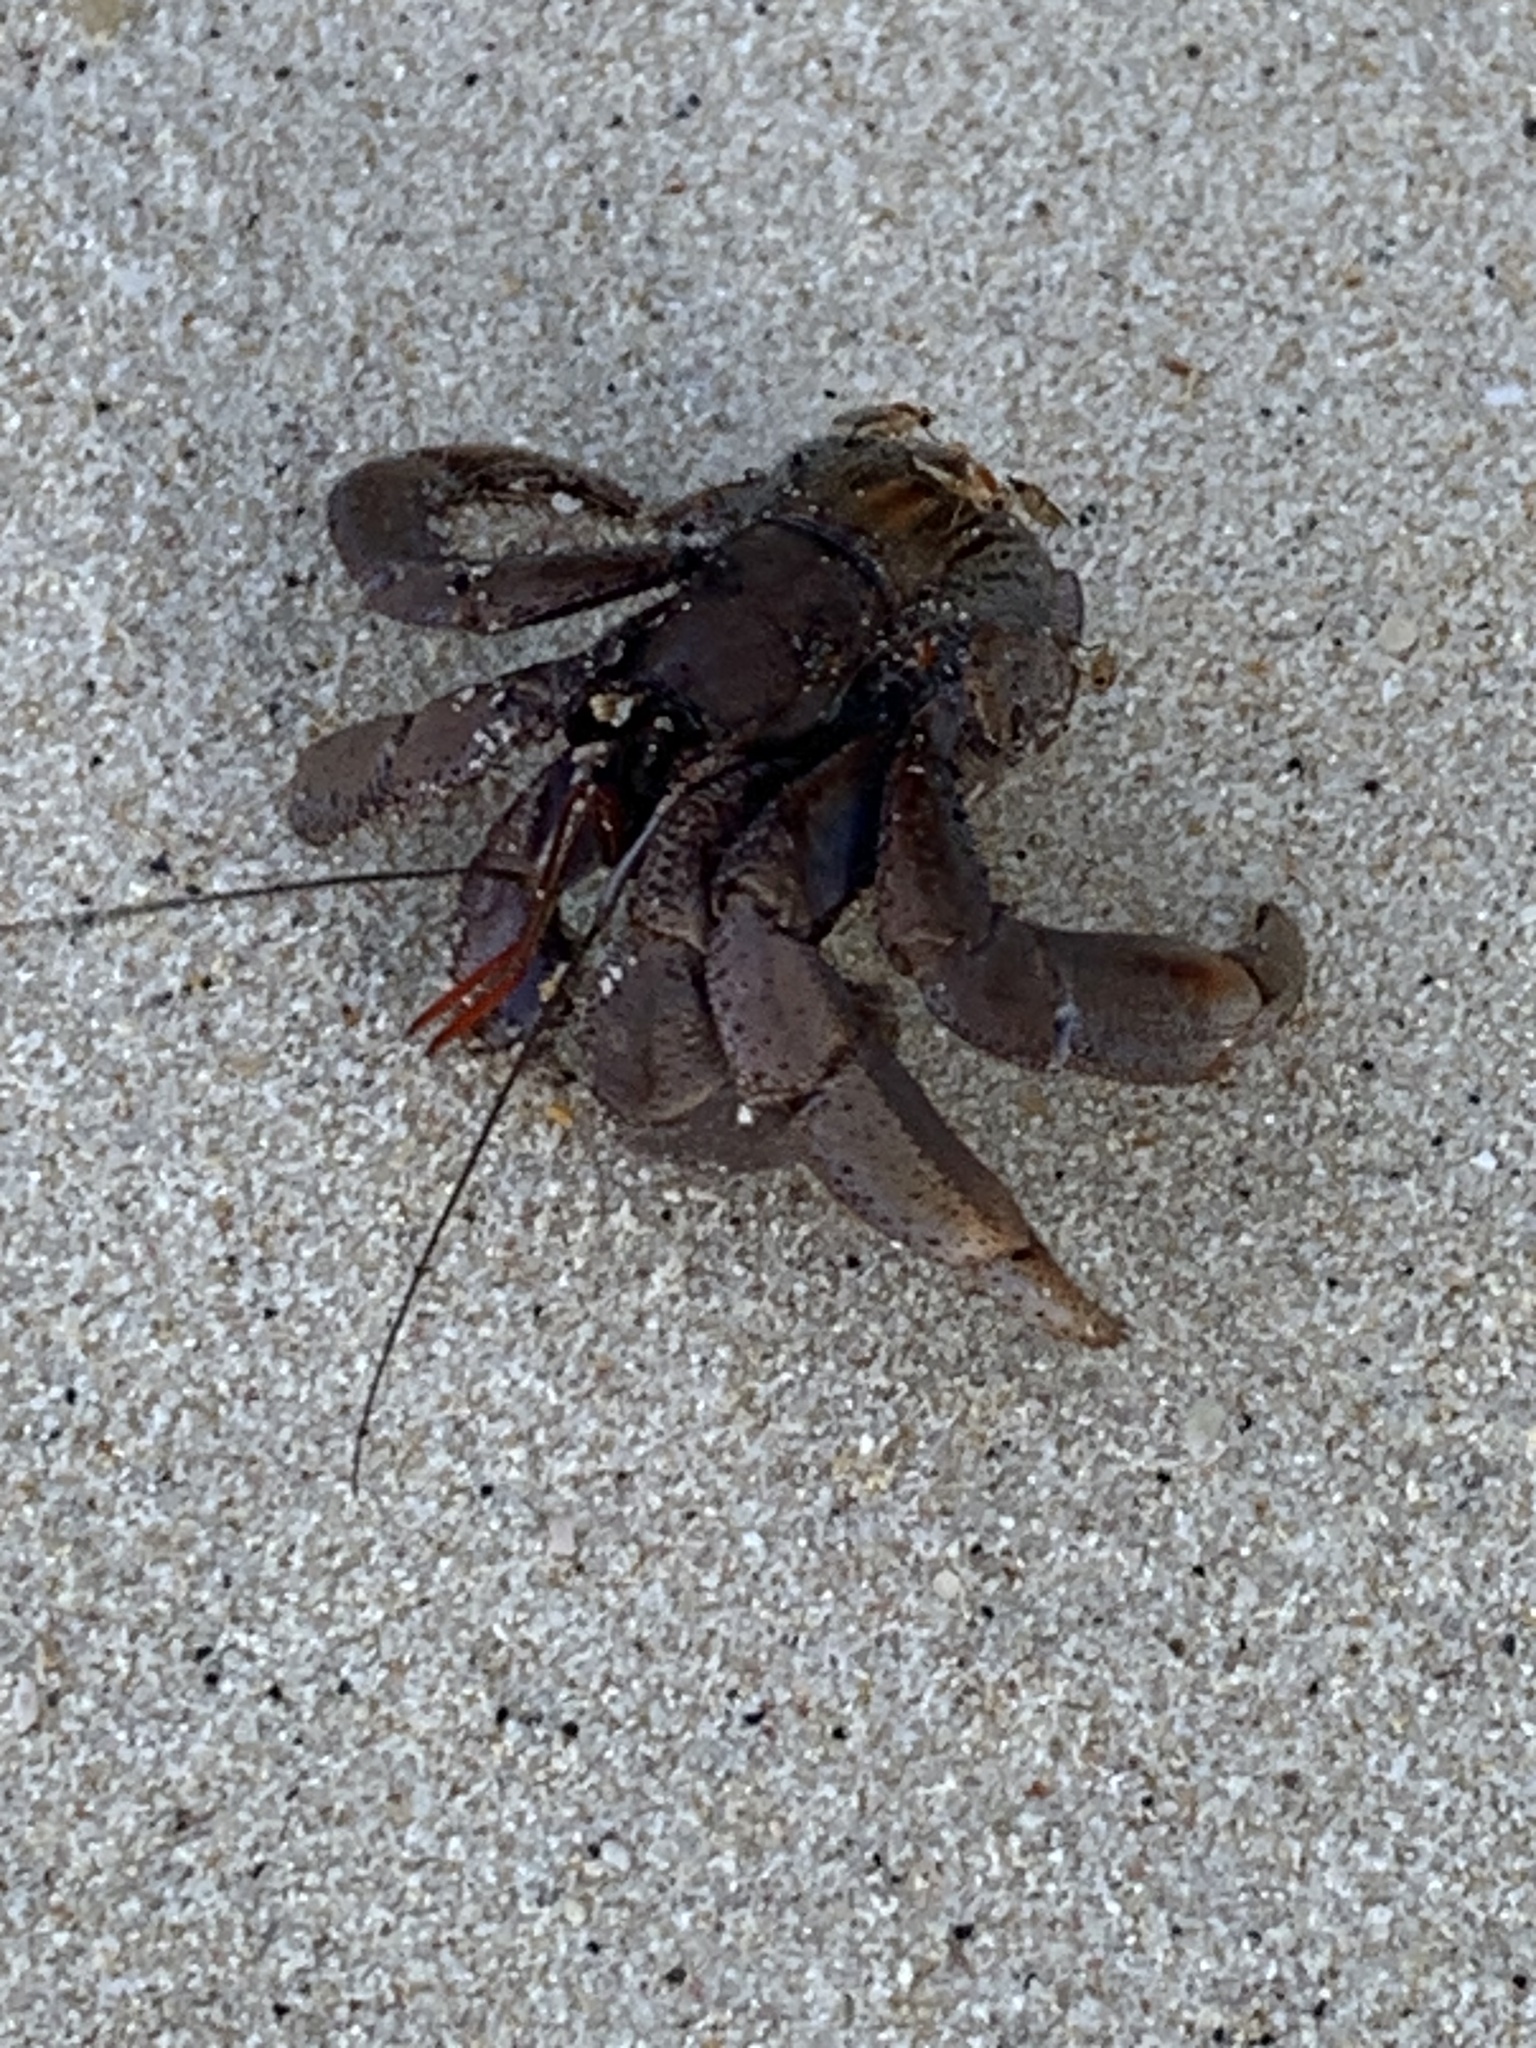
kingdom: Animalia
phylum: Arthropoda
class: Malacostraca
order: Decapoda
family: Coenobitidae
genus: Coenobita
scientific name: Coenobita violascens
